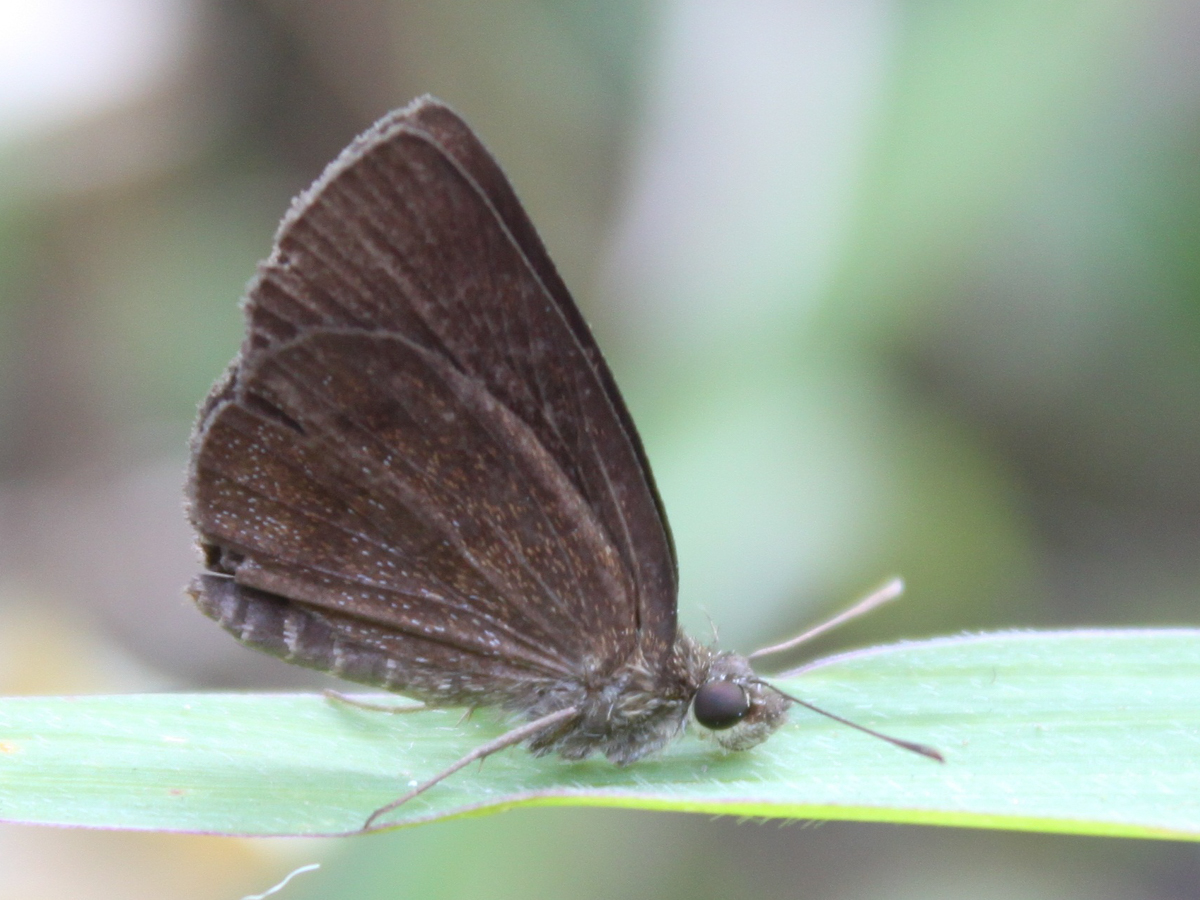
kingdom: Animalia
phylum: Arthropoda
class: Insecta
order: Lepidoptera
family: Hesperiidae
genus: Astictopterus
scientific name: Astictopterus jama
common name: Forest hopper
